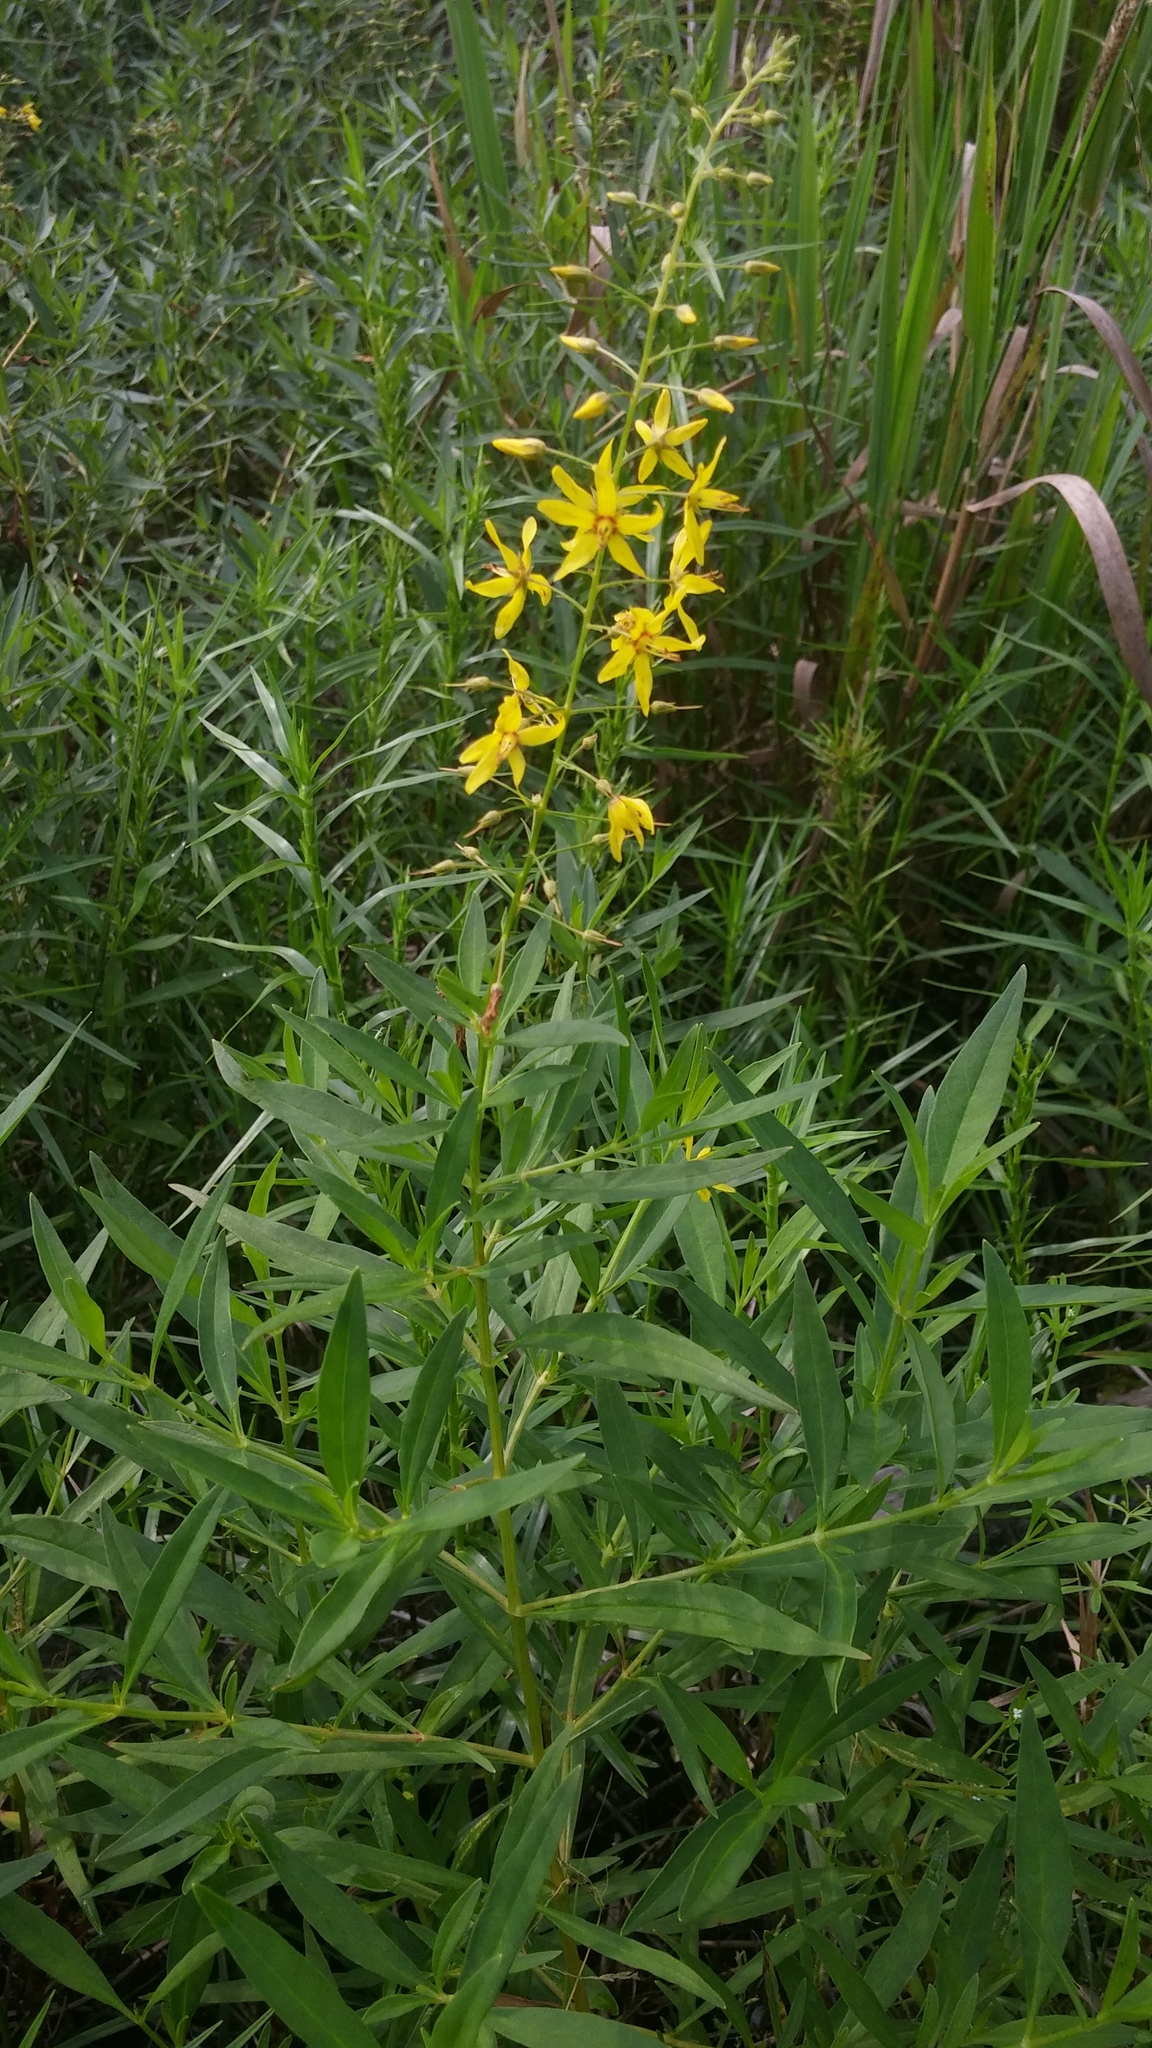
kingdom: Plantae
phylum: Tracheophyta
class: Magnoliopsida
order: Ericales
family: Primulaceae
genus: Lysimachia
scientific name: Lysimachia terrestris
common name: Lake loosestrife
